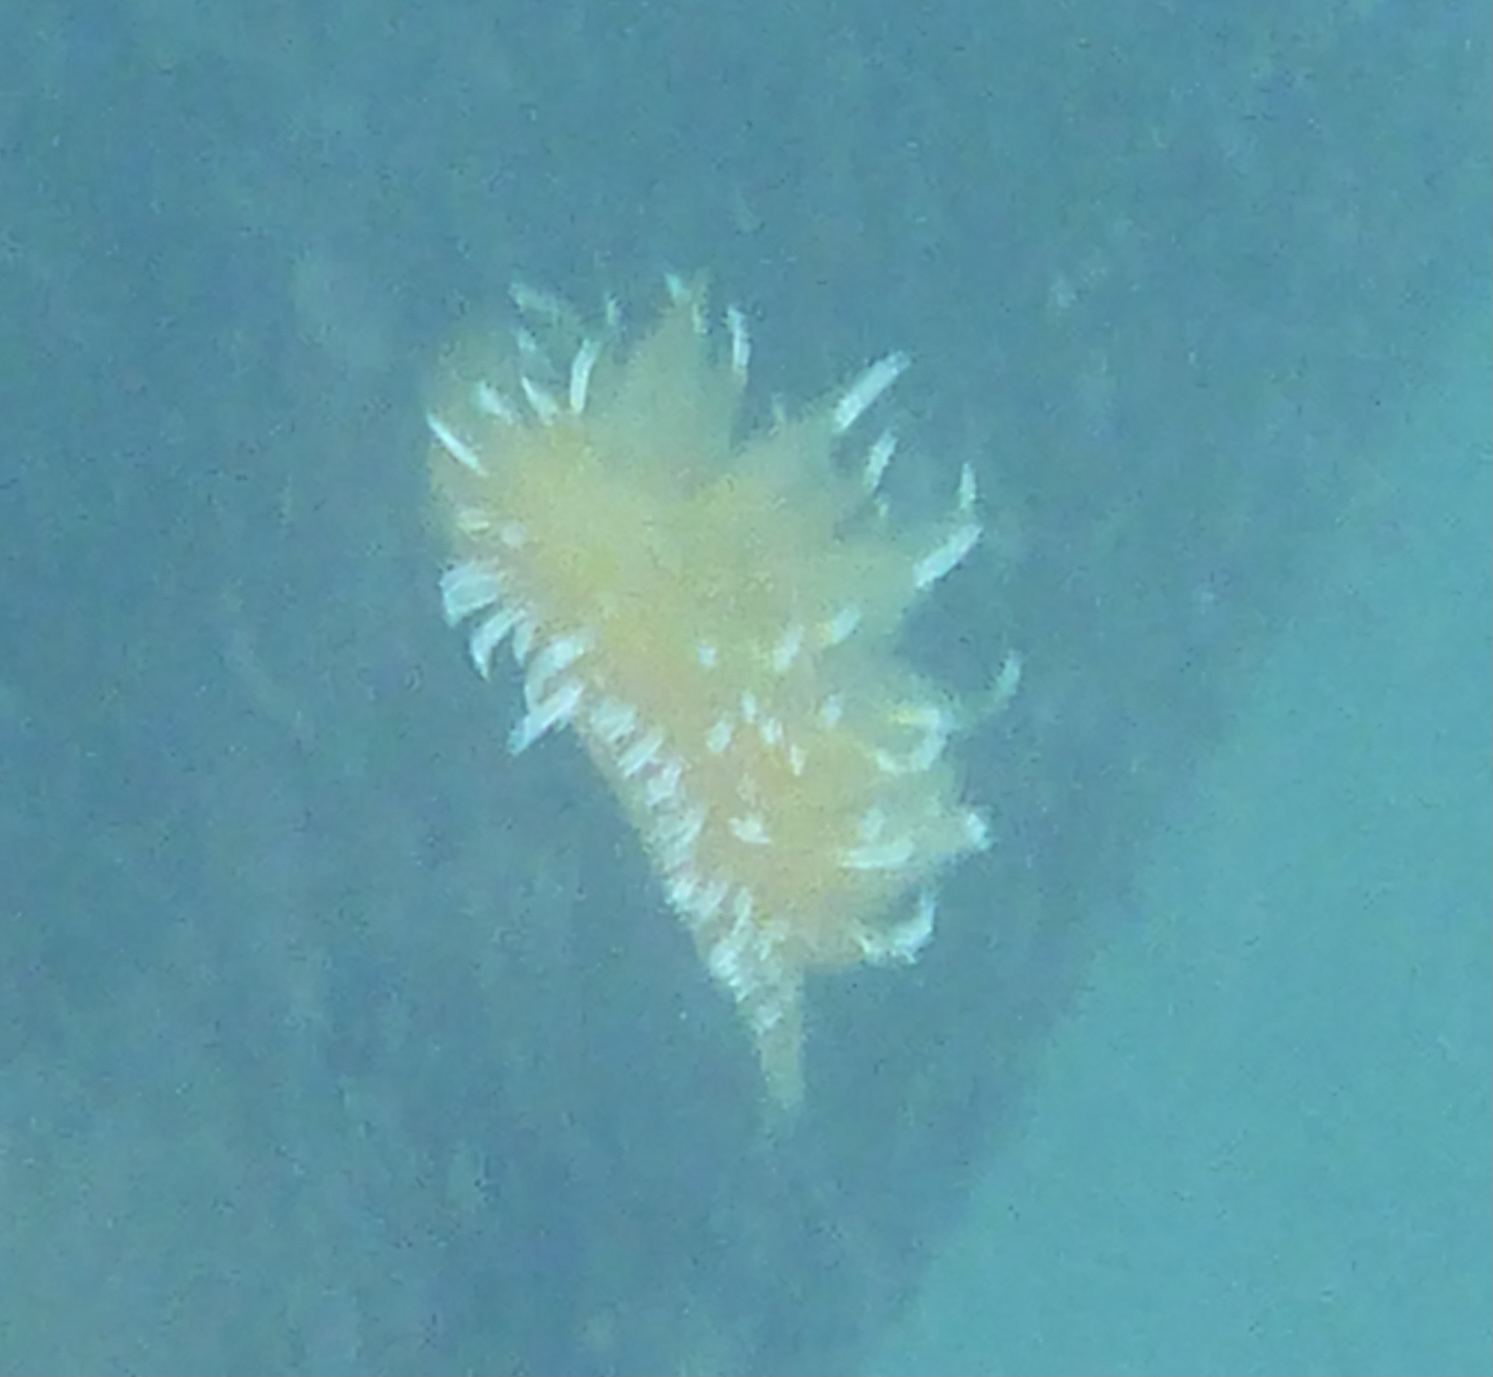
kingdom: Animalia
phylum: Mollusca
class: Gastropoda
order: Nudibranchia
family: Dironidae
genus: Dirona
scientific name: Dirona pellucida
